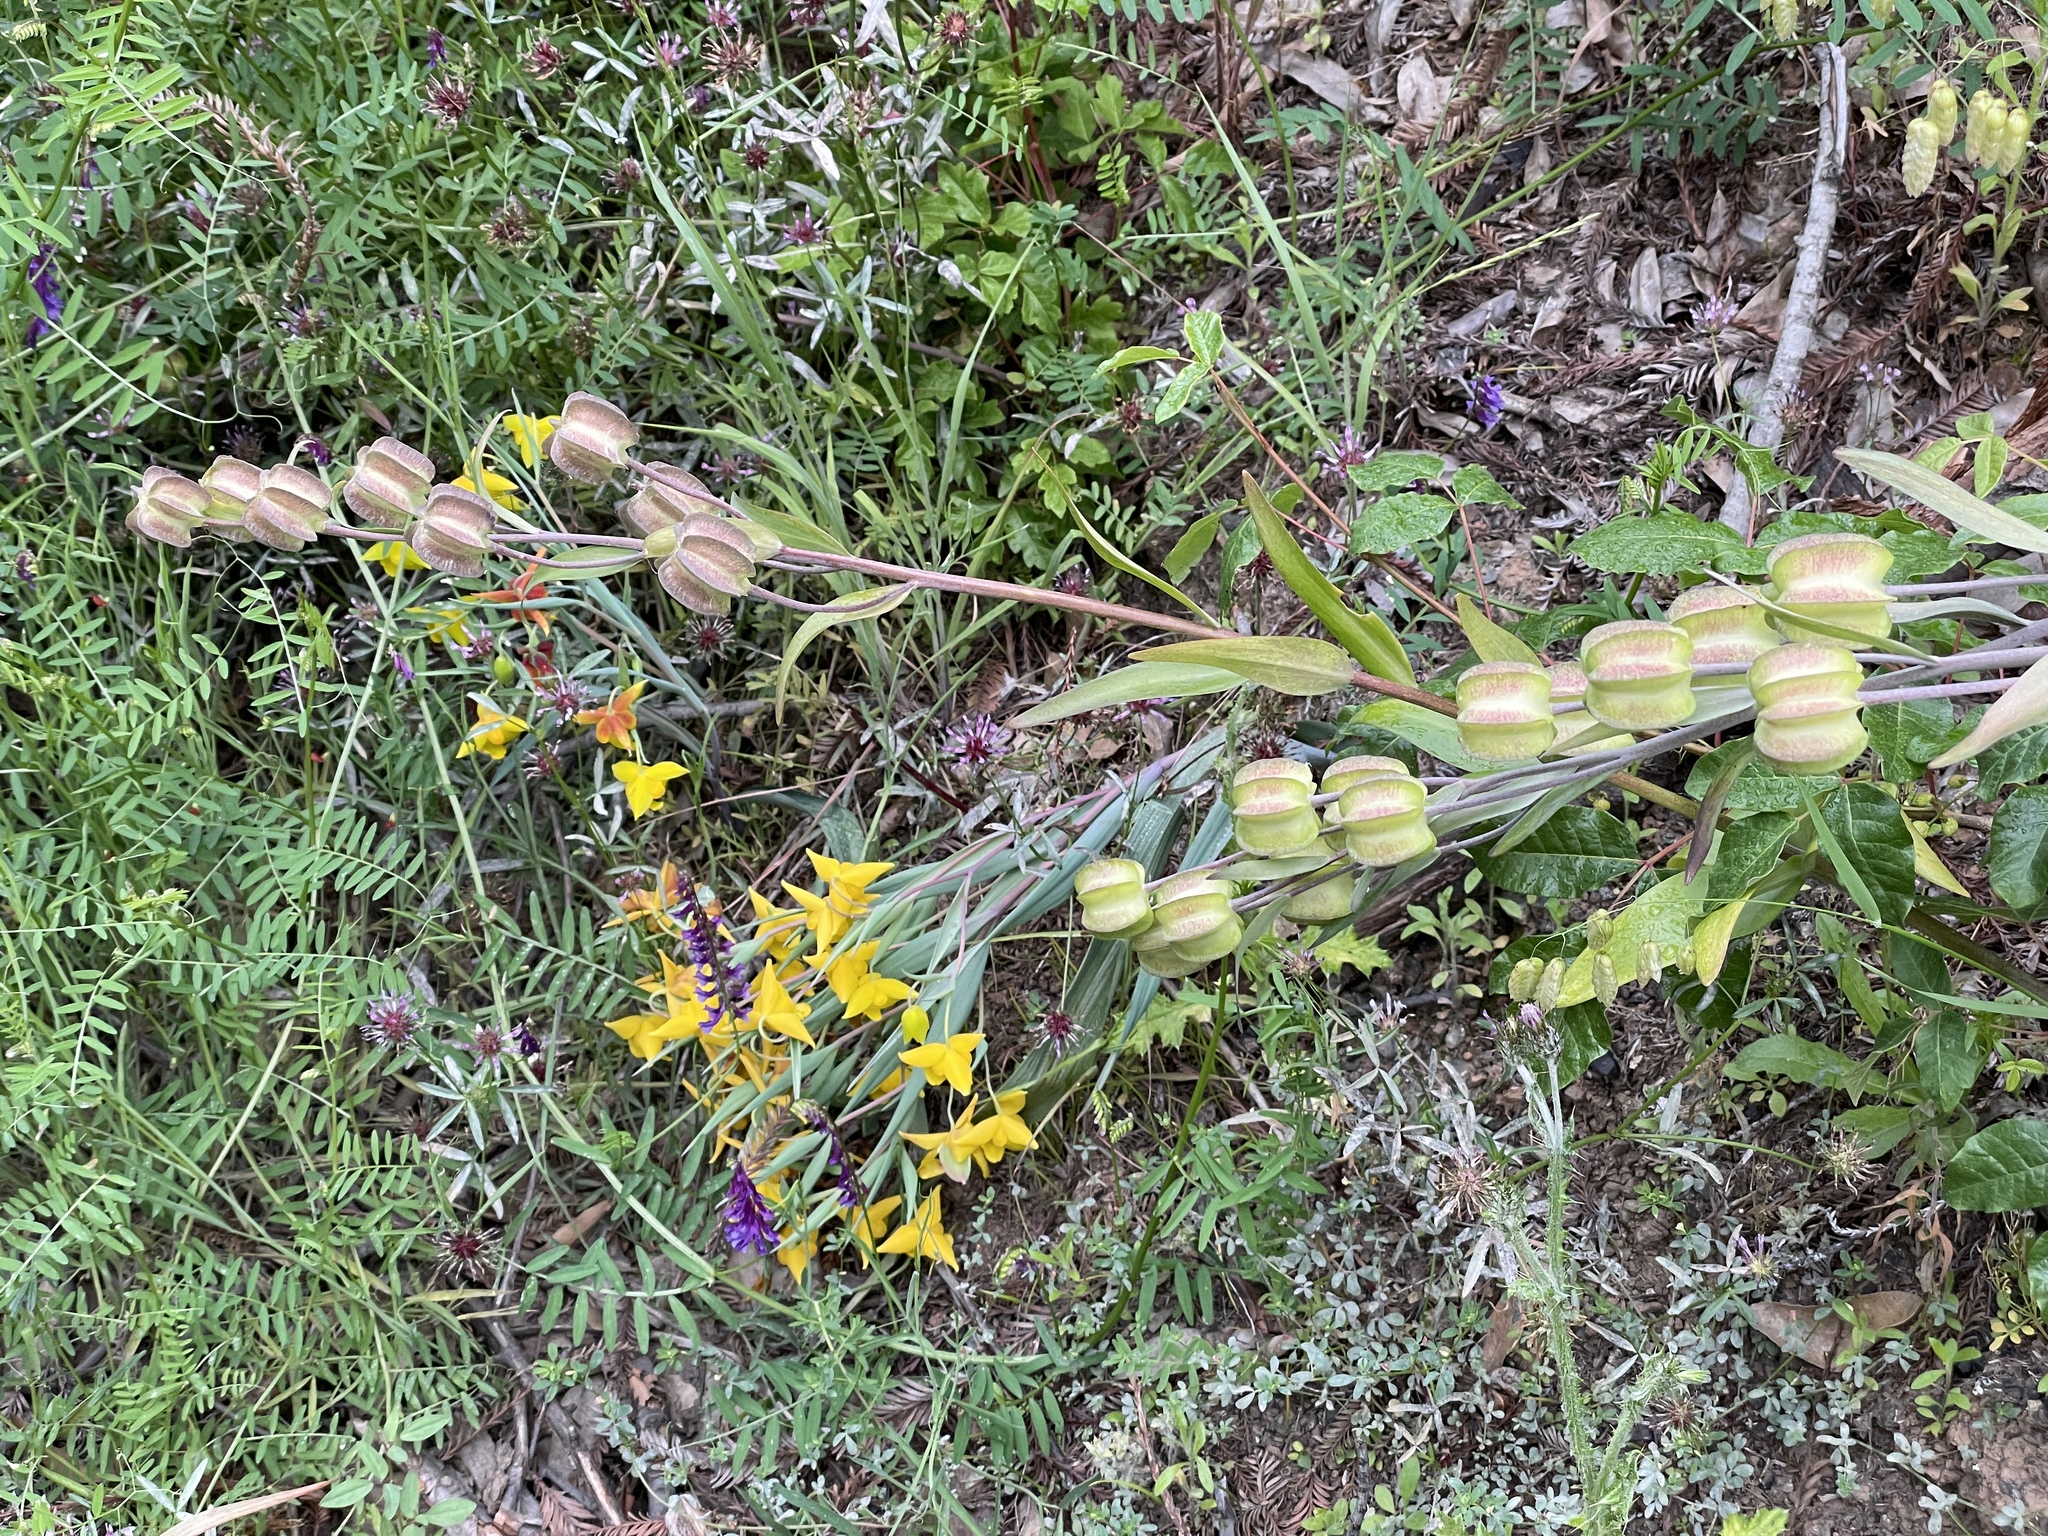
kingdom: Plantae
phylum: Tracheophyta
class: Liliopsida
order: Liliales
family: Liliaceae
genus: Fritillaria
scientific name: Fritillaria affinis
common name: Ojai fritillary
